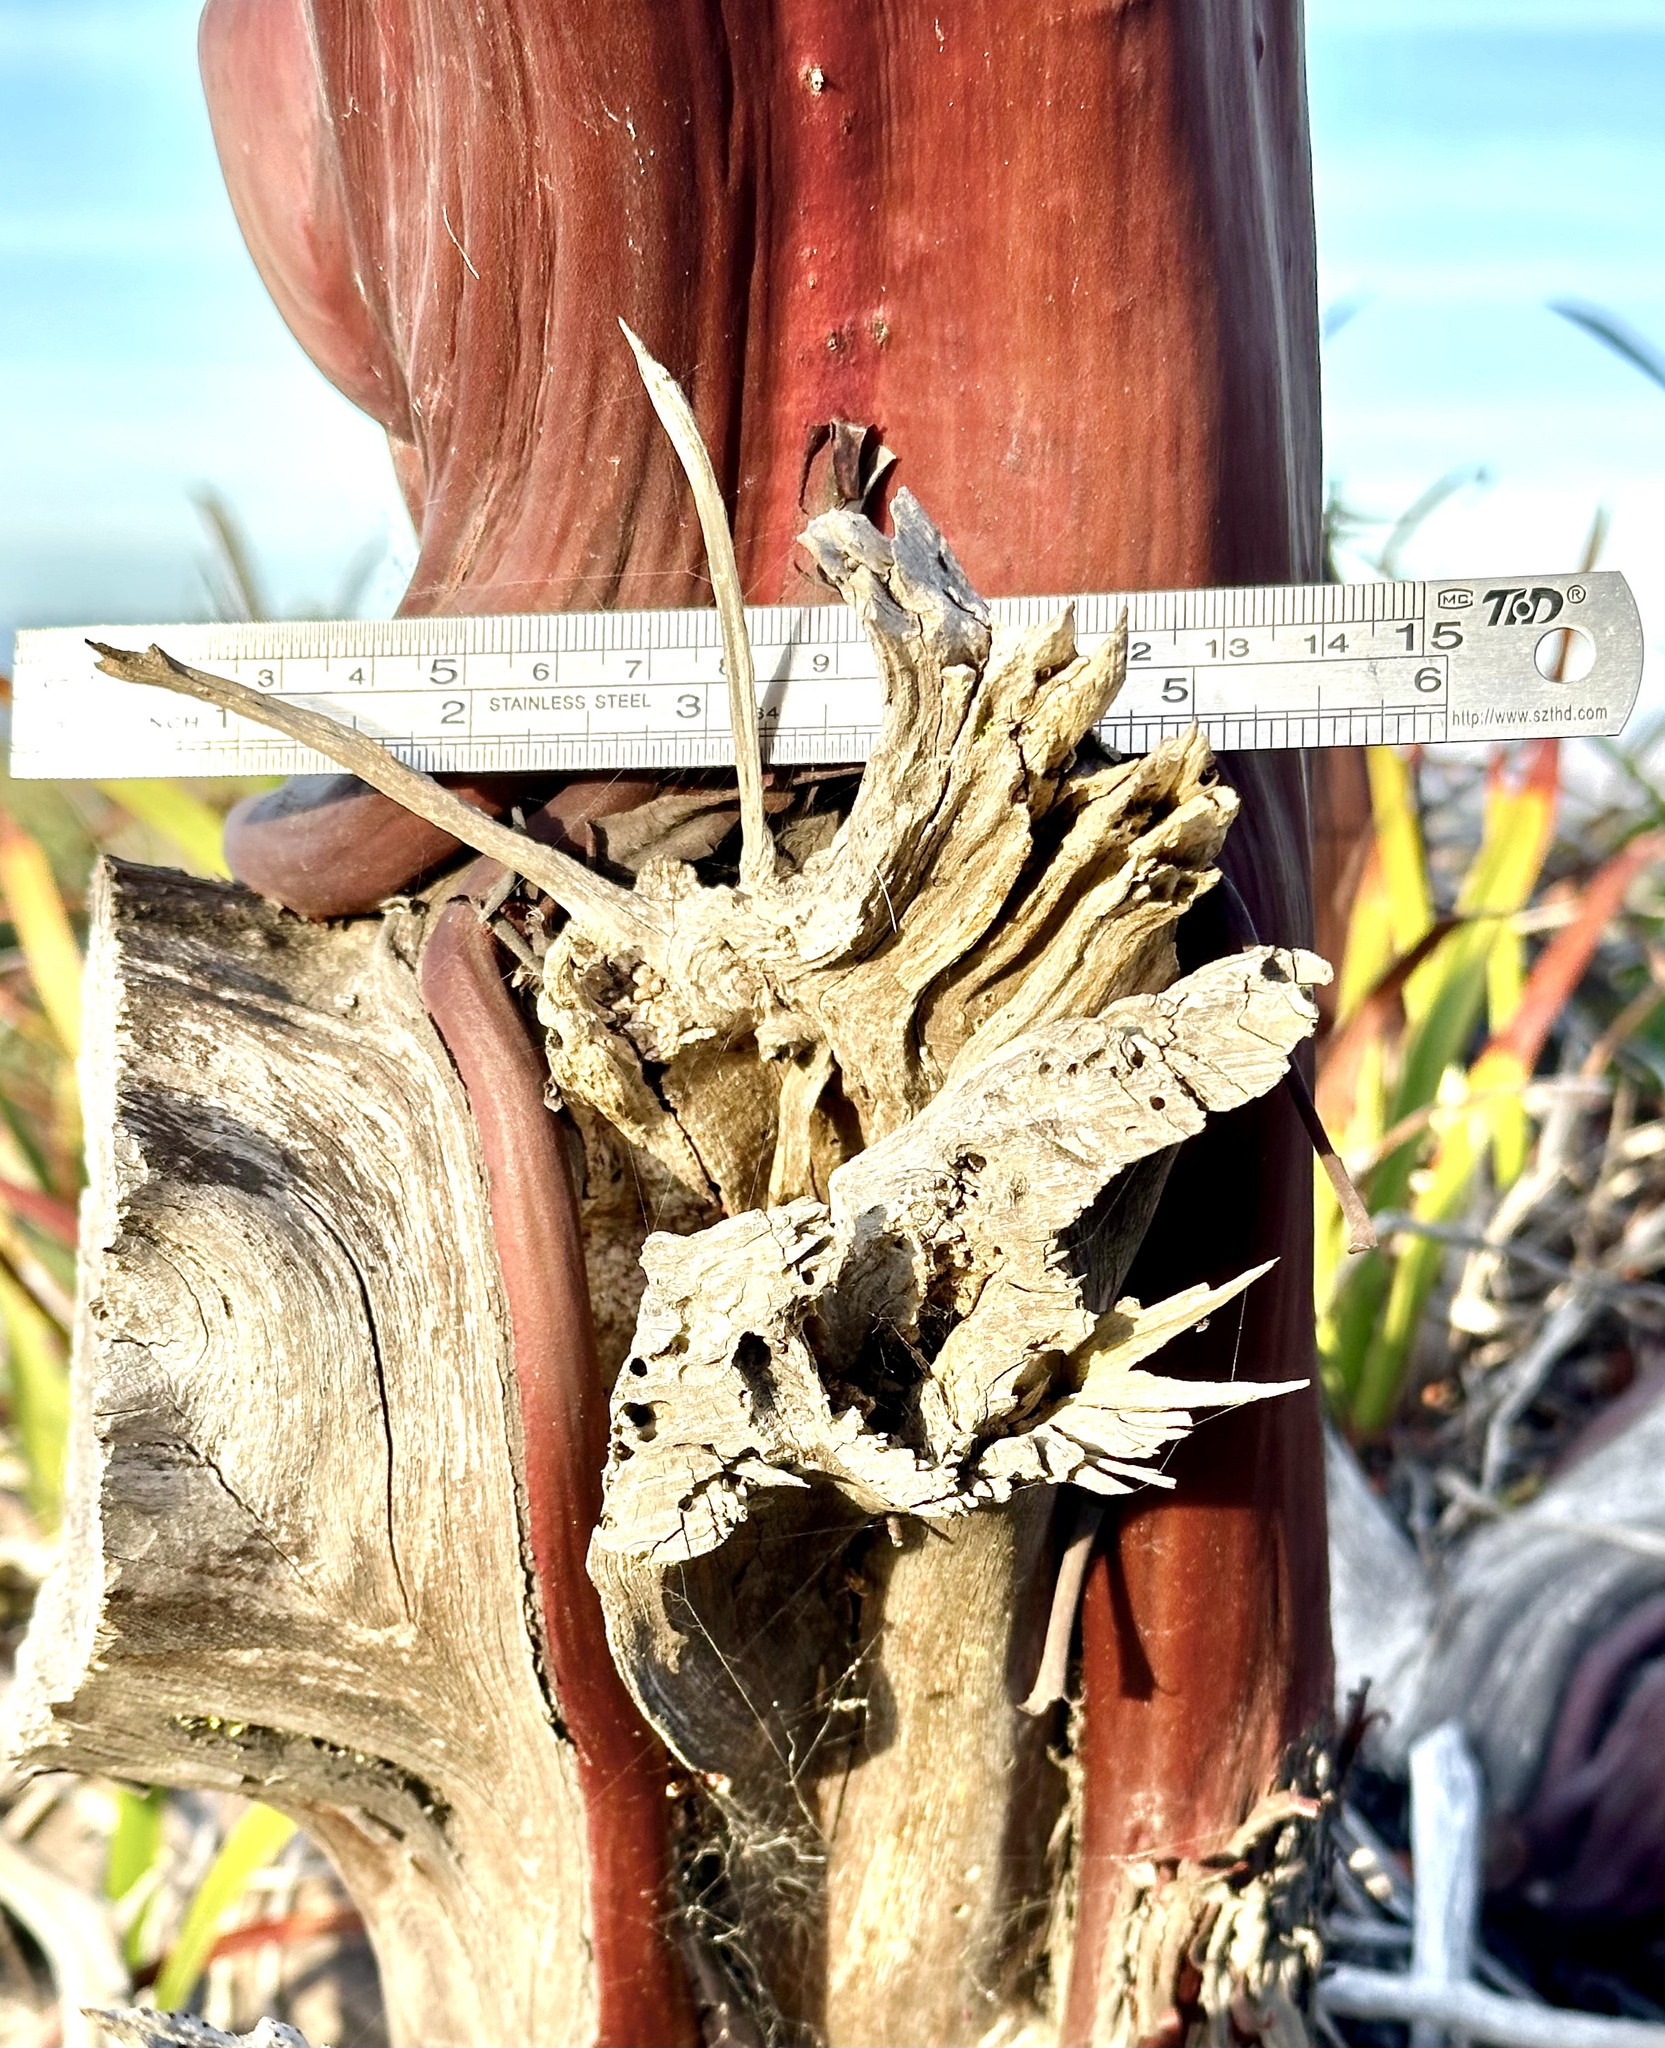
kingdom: Plantae
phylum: Tracheophyta
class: Magnoliopsida
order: Ericales
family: Ericaceae
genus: Arctostaphylos
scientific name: Arctostaphylos montereyensis
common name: Monterey manzanita
